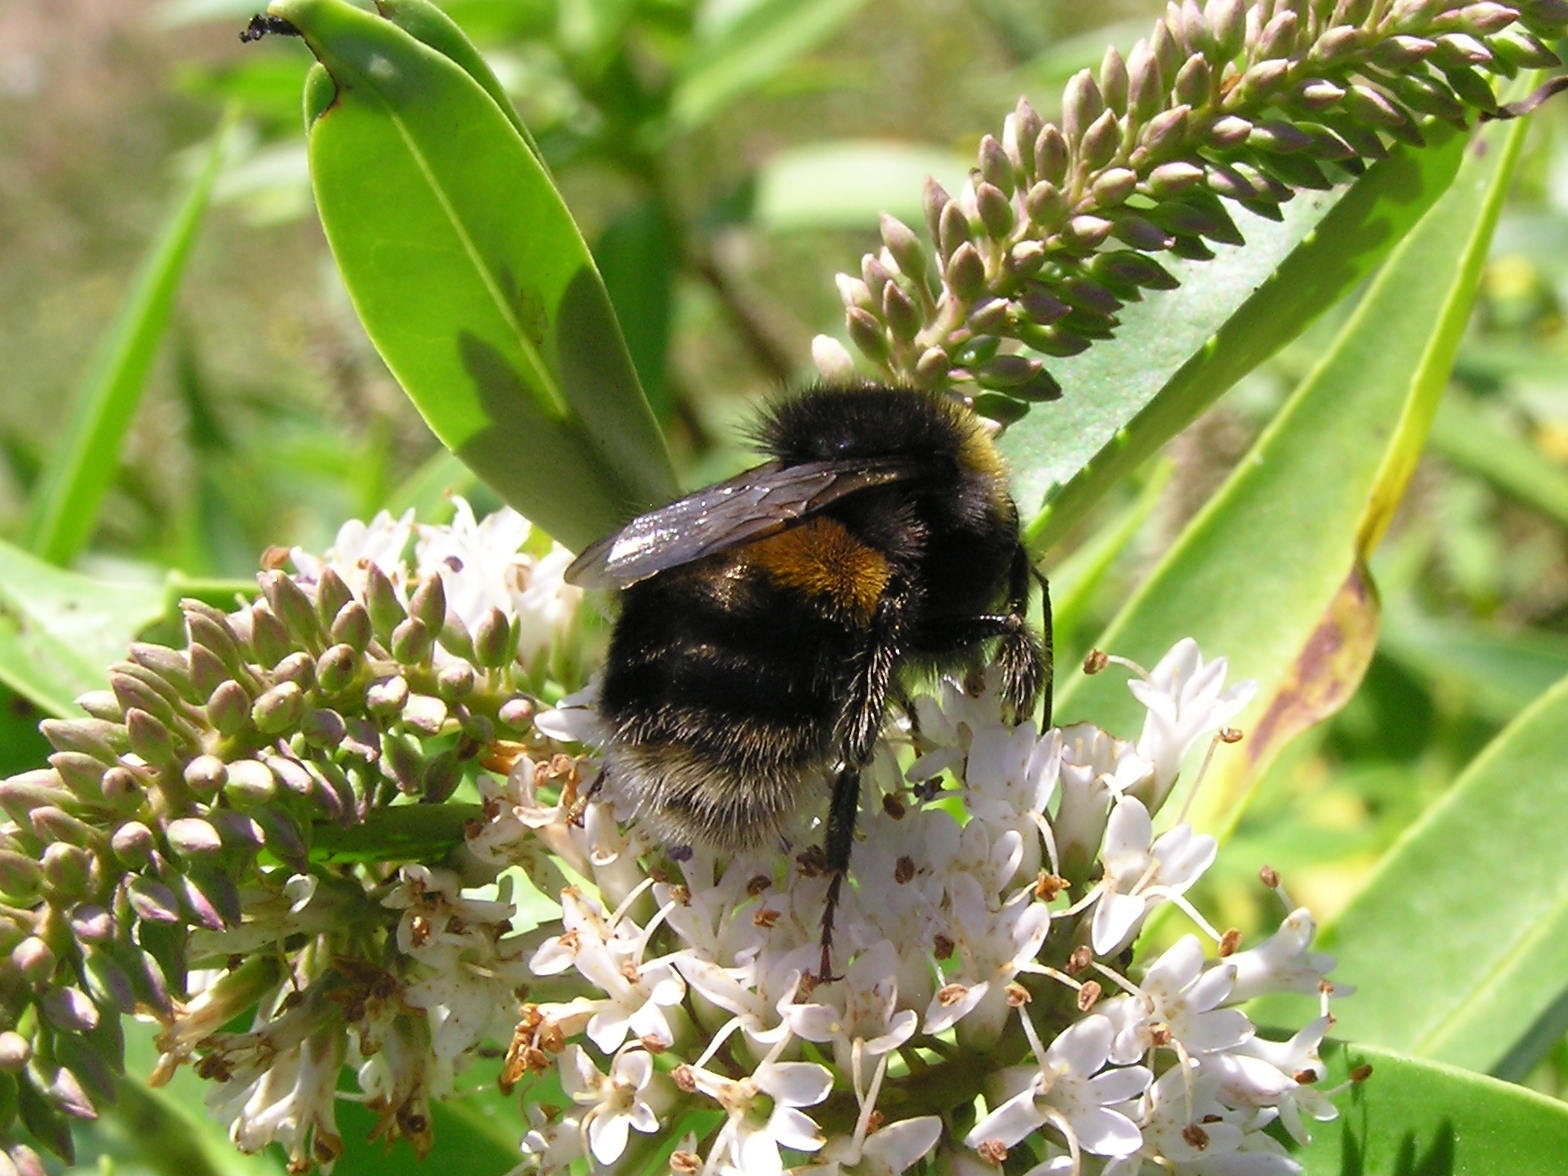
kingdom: Animalia
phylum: Arthropoda
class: Insecta
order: Hymenoptera
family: Apidae
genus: Bombus
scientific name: Bombus terrestris
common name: Buff-tailed bumblebee
